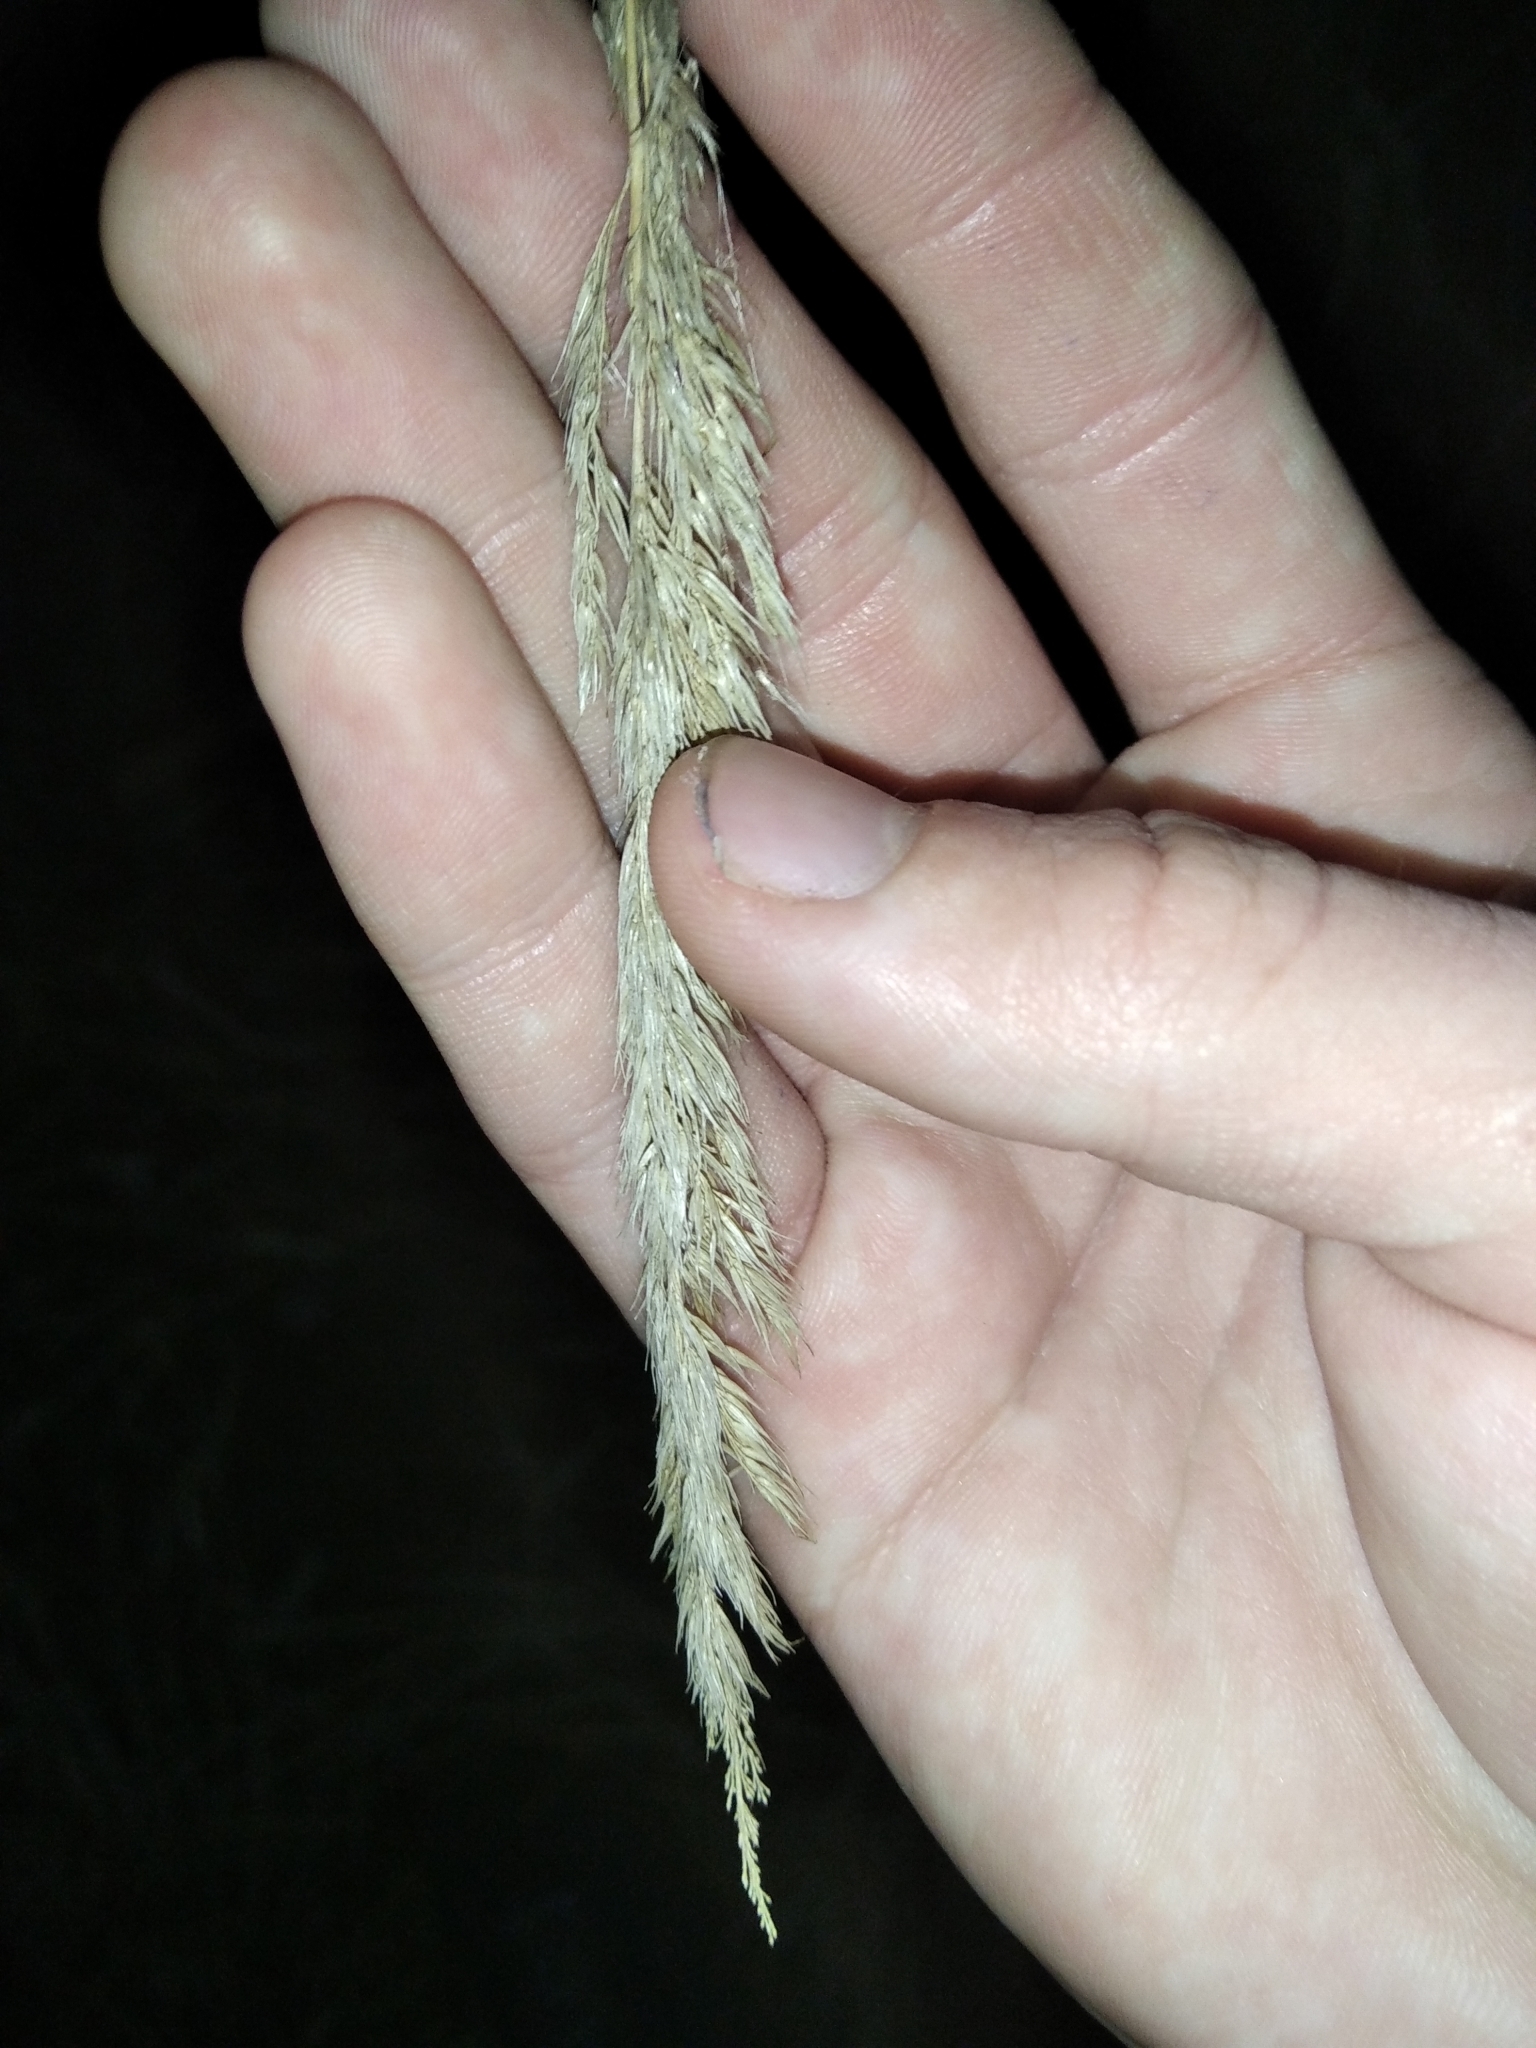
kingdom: Plantae
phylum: Tracheophyta
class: Liliopsida
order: Poales
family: Poaceae
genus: Calamagrostis
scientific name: Calamagrostis epigejos
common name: Wood small-reed
